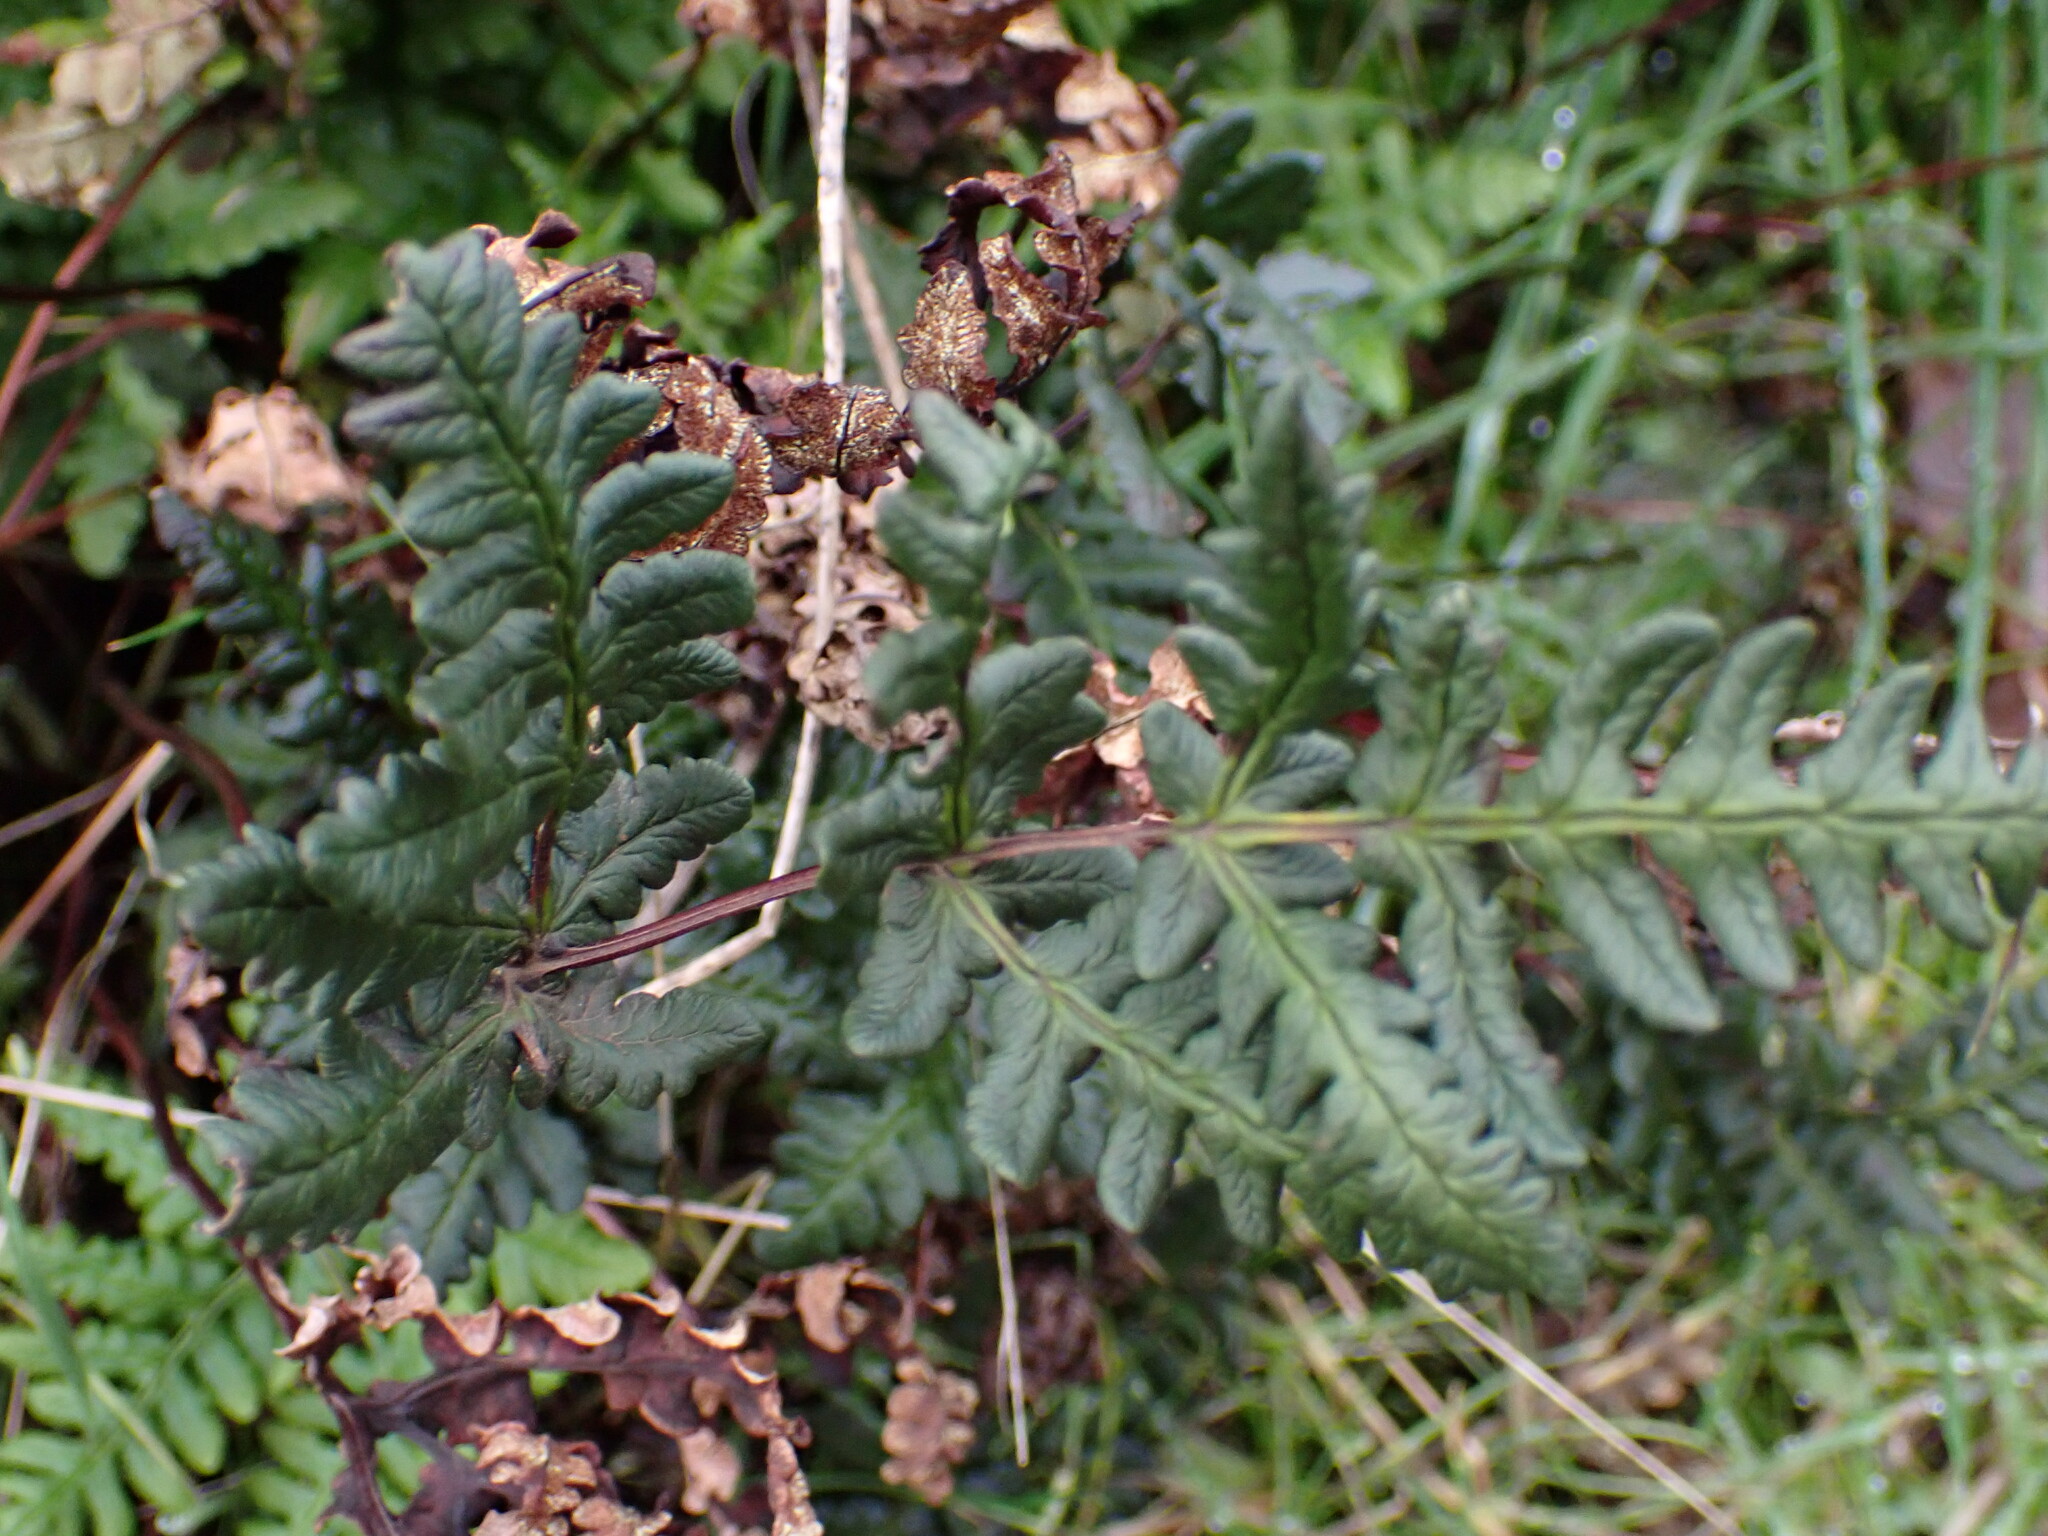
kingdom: Plantae
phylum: Tracheophyta
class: Polypodiopsida
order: Polypodiales
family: Pteridaceae
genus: Pentagramma
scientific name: Pentagramma triangularis
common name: Gold fern
